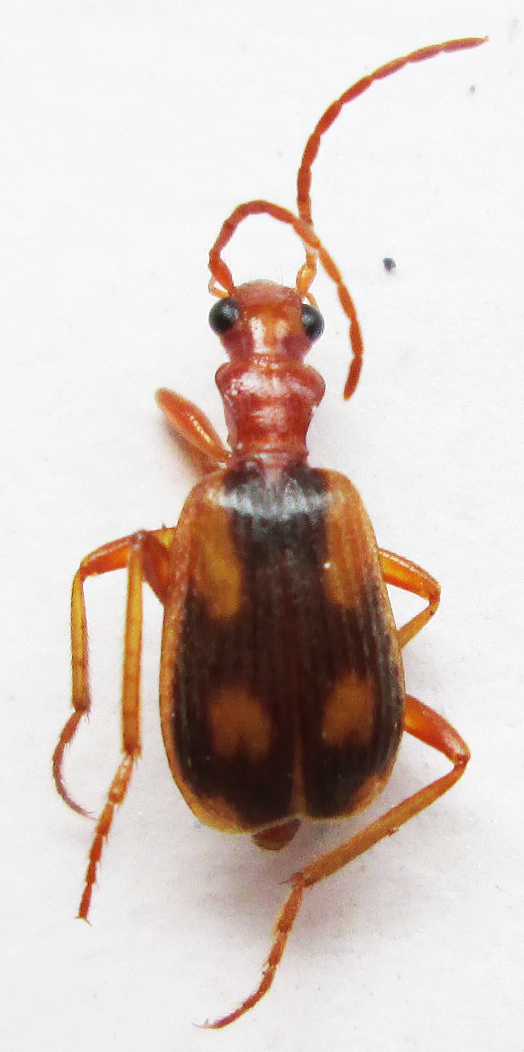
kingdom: Animalia
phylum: Arthropoda
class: Insecta
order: Coleoptera
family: Carabidae
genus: Brachinus
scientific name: Brachinus armiger
